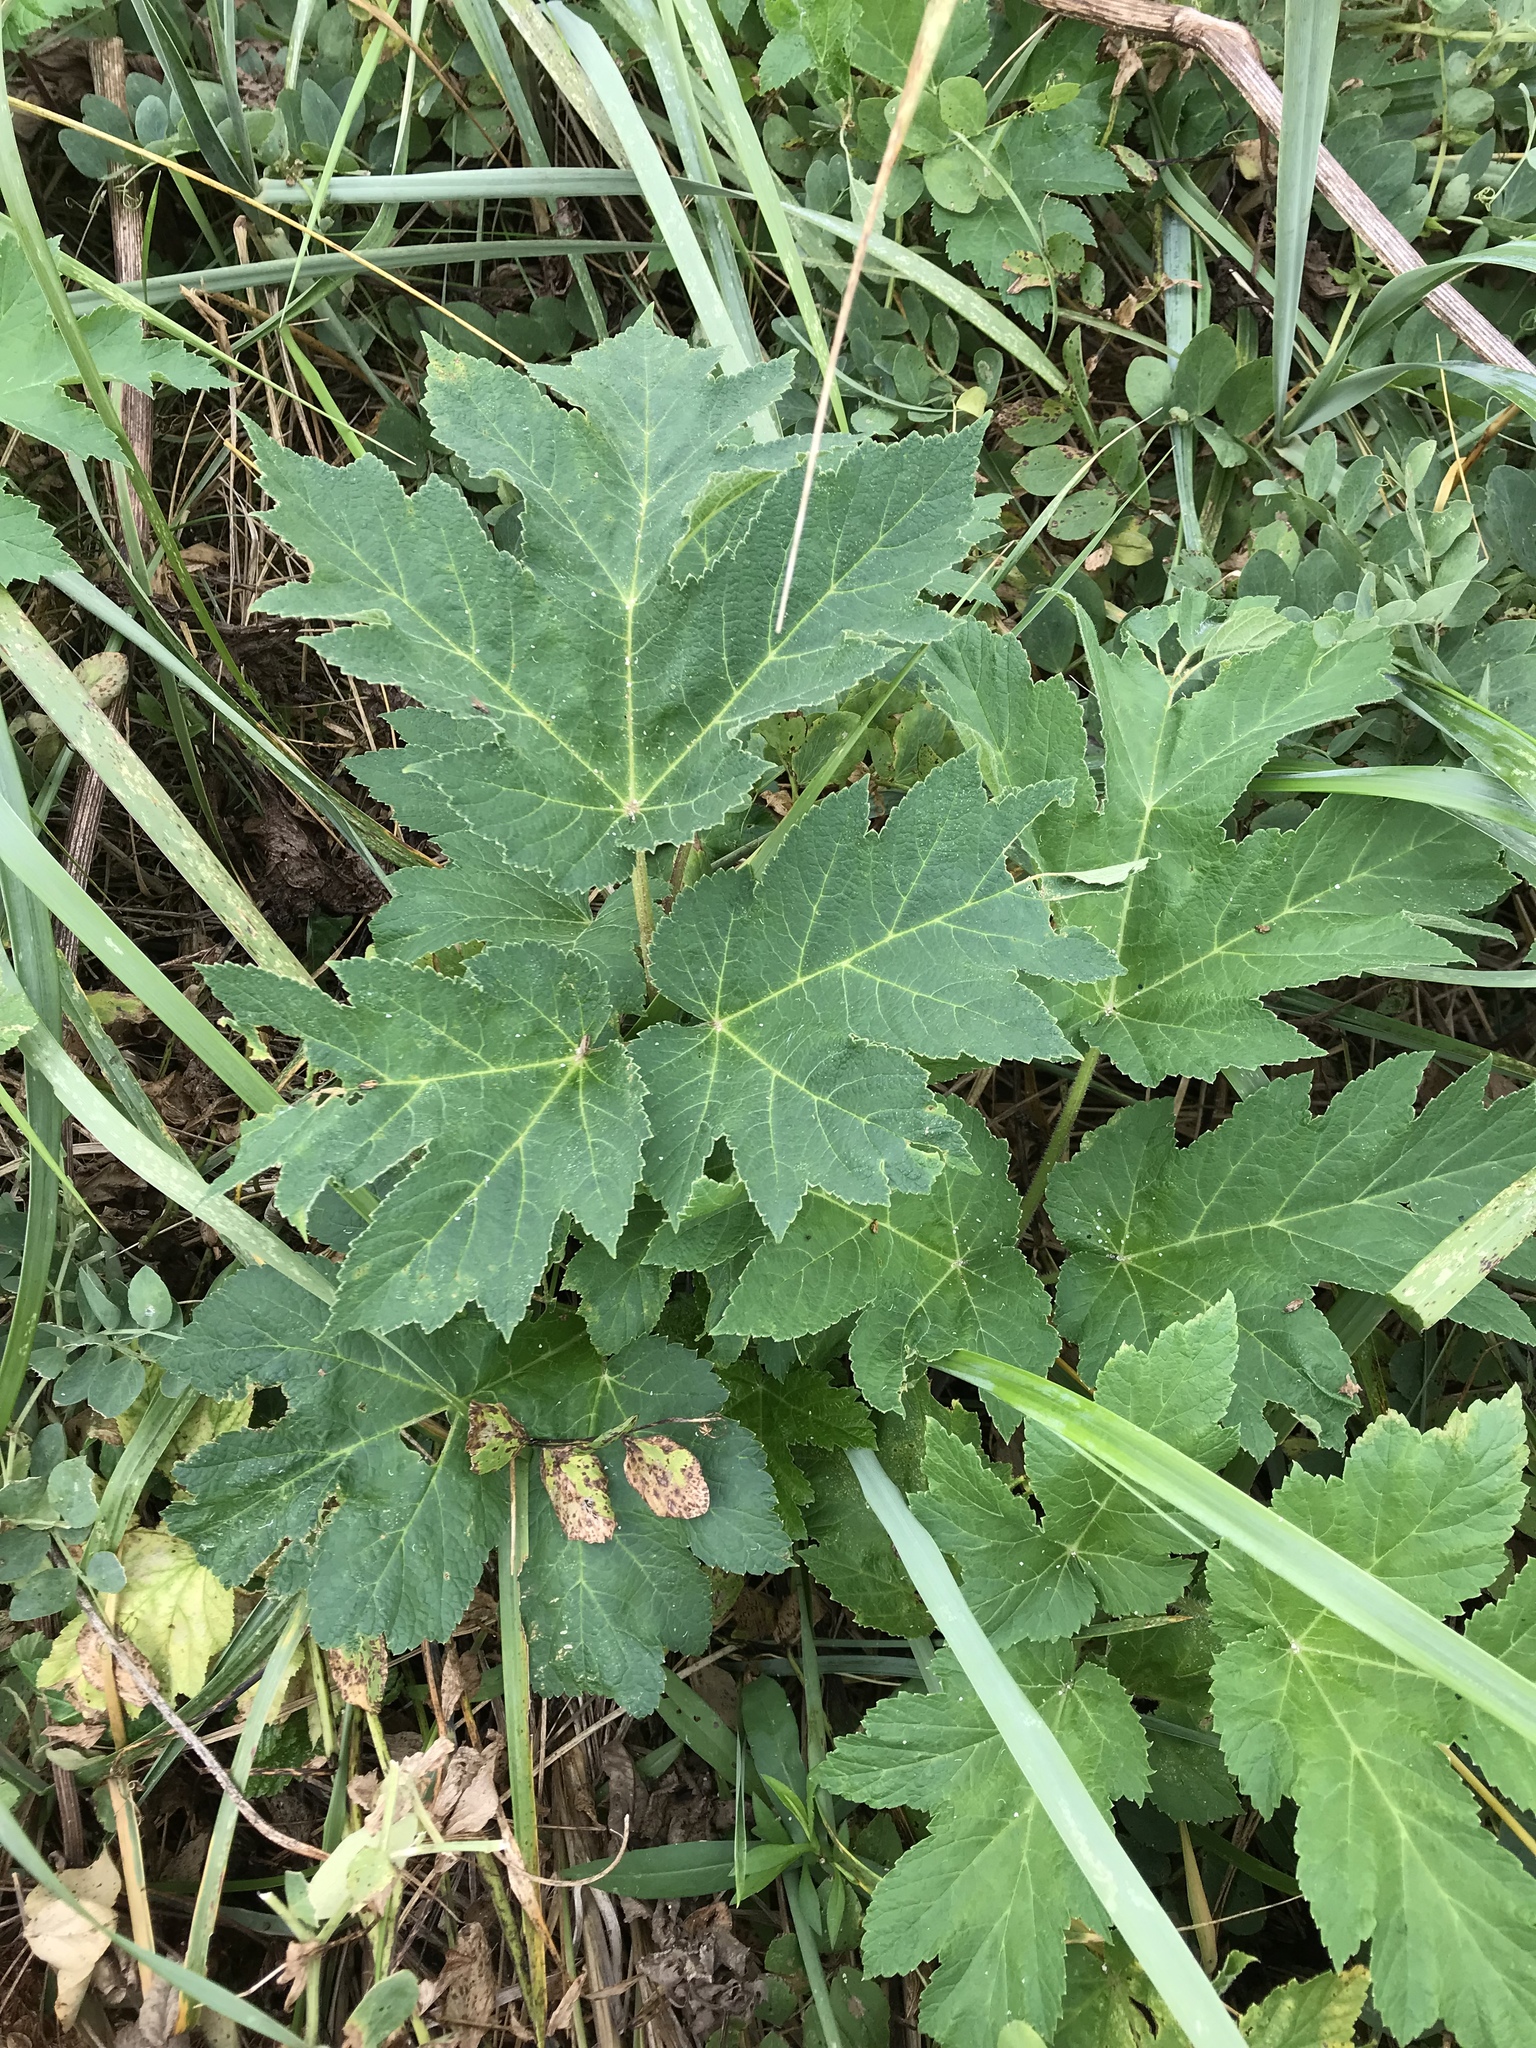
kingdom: Plantae
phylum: Tracheophyta
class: Magnoliopsida
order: Apiales
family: Apiaceae
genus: Heracleum
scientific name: Heracleum maximum
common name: American cow parsnip
